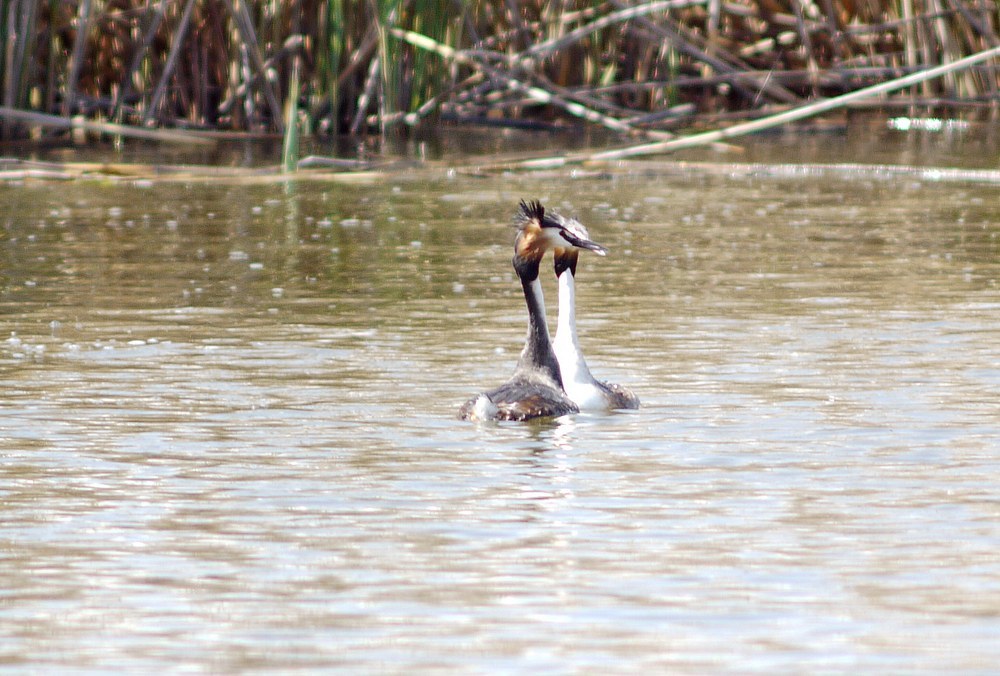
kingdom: Animalia
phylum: Chordata
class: Aves
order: Podicipediformes
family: Podicipedidae
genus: Podiceps
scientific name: Podiceps cristatus
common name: Great crested grebe
